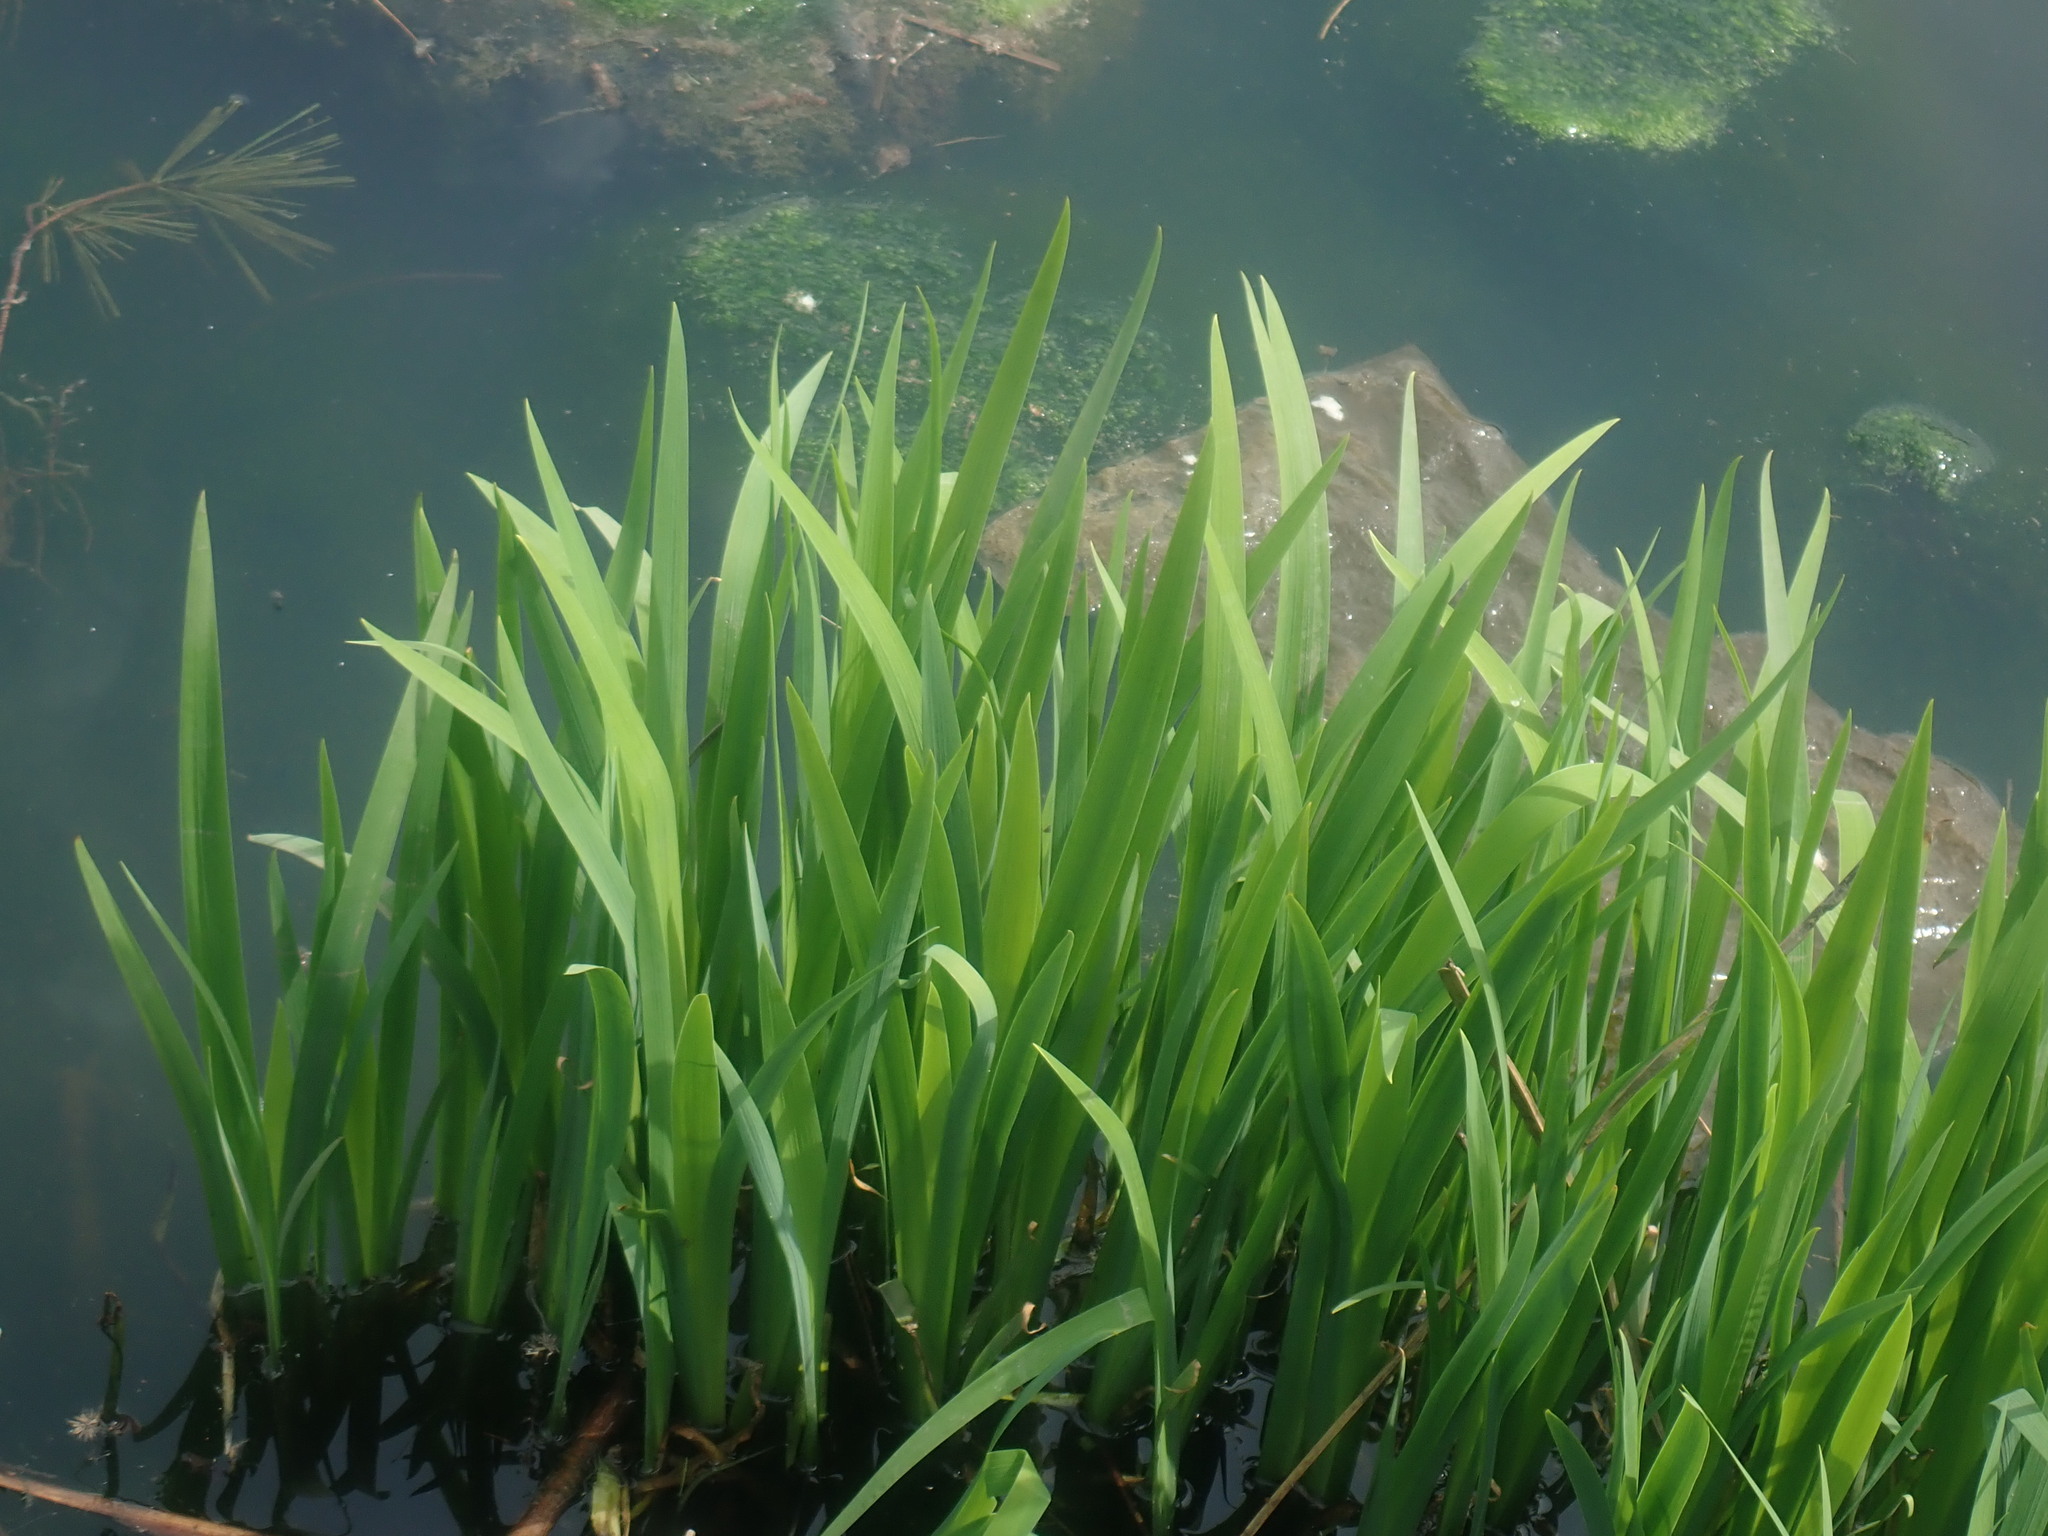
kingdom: Plantae
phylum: Tracheophyta
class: Liliopsida
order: Asparagales
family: Iridaceae
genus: Iris
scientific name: Iris
